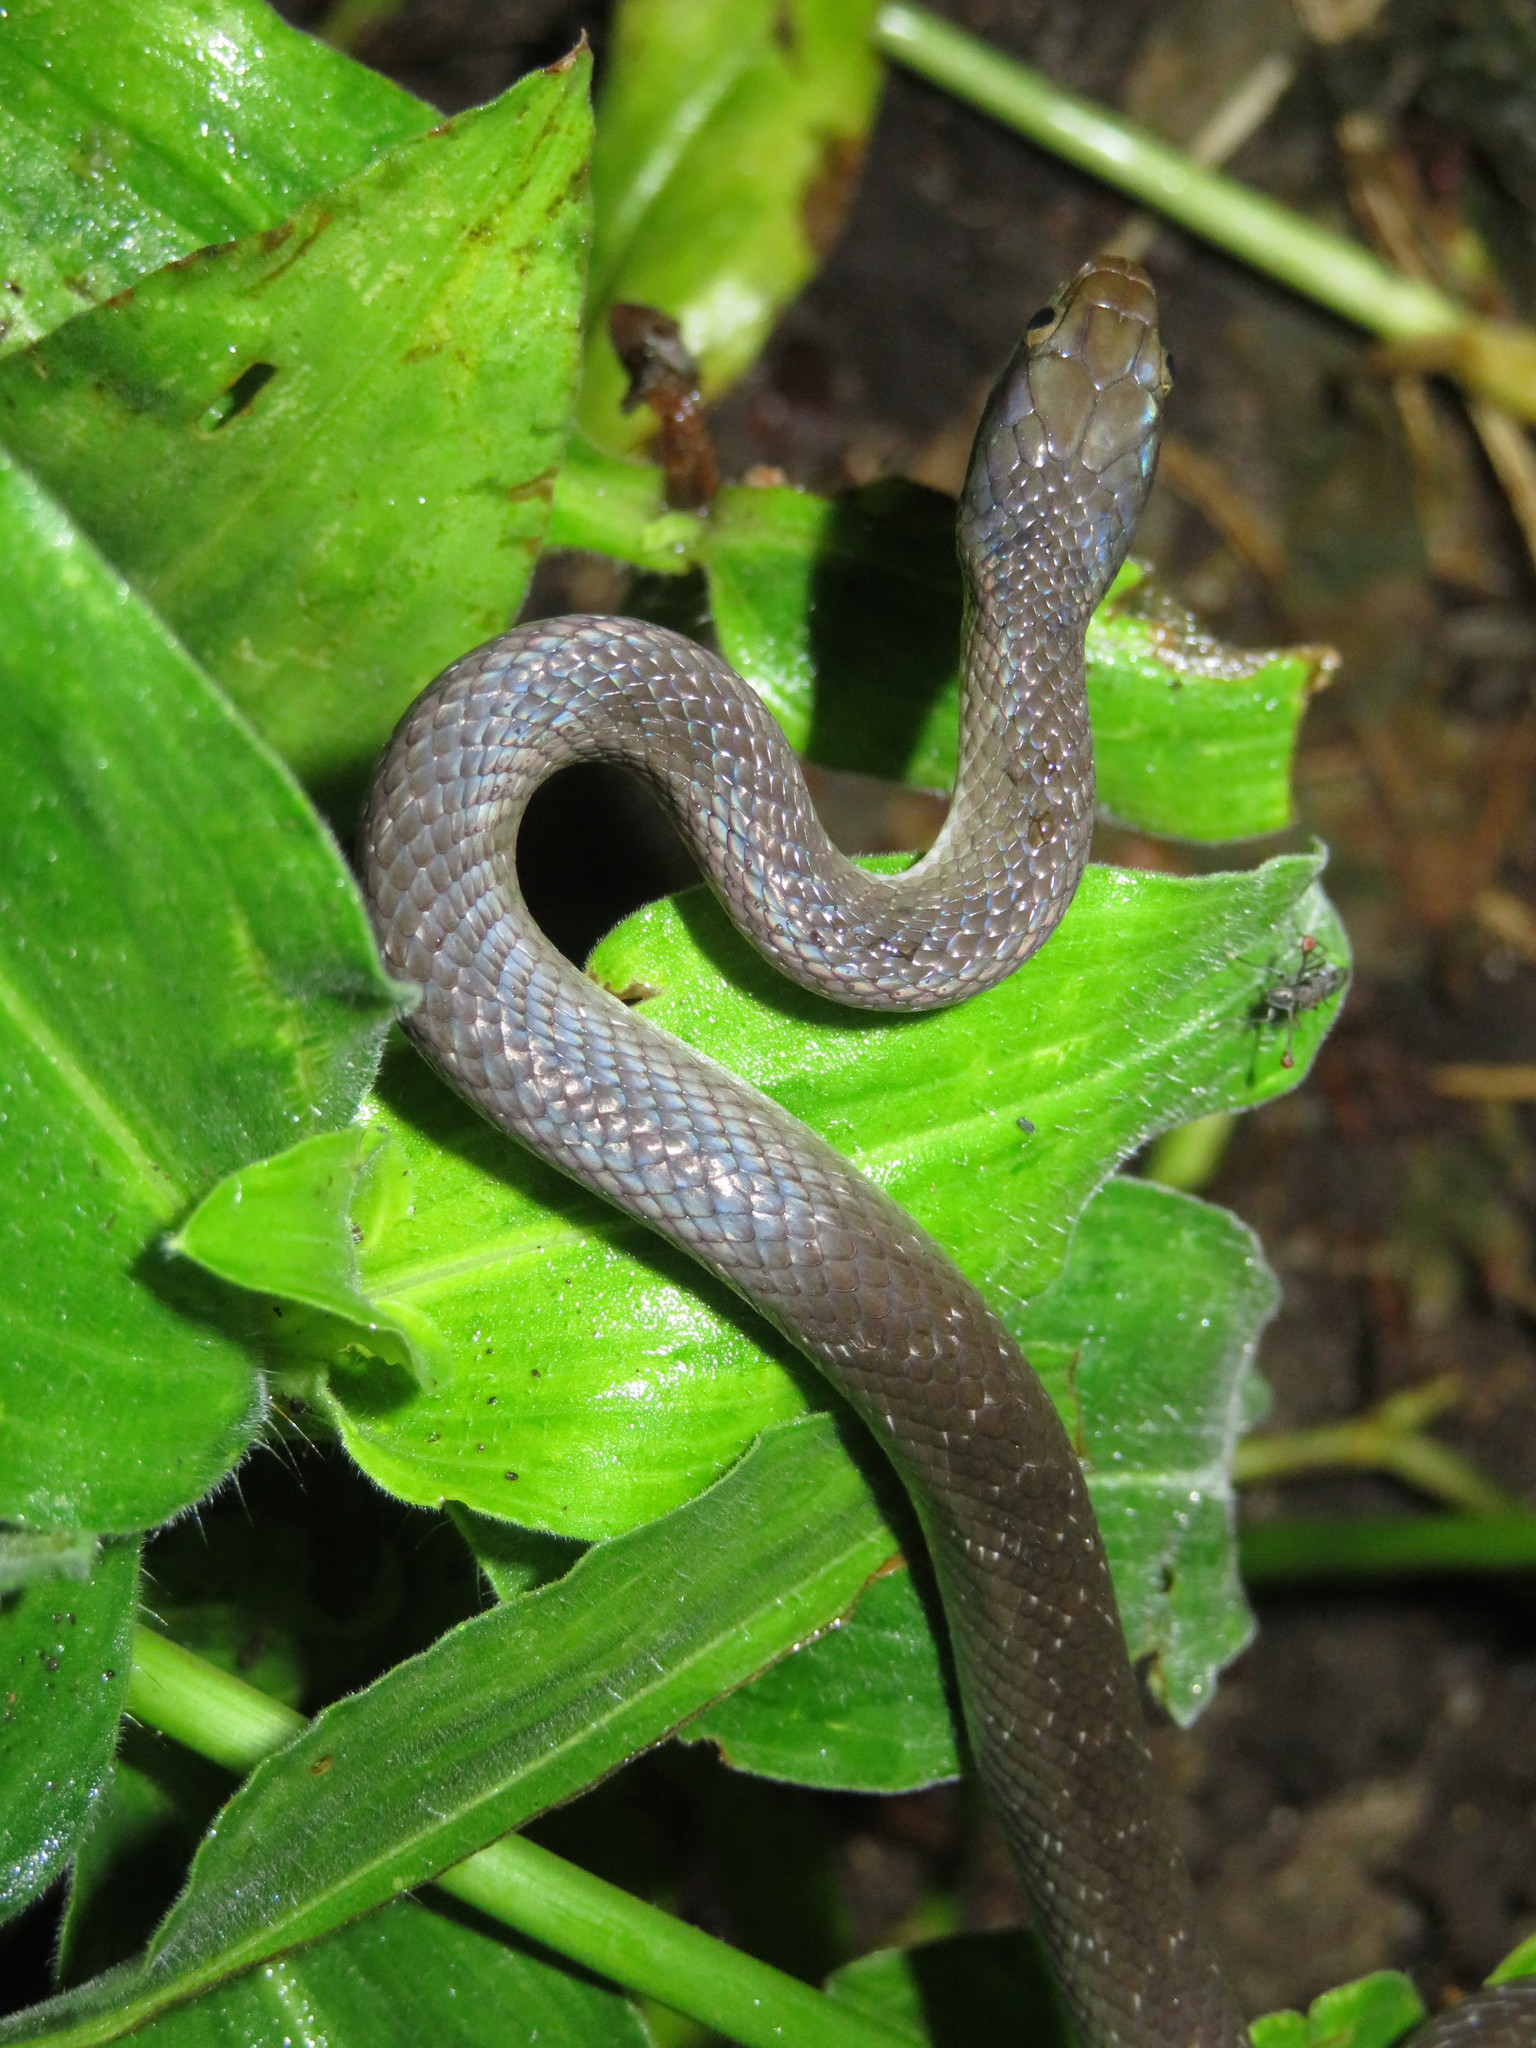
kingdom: Animalia
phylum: Chordata
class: Squamata
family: Colubridae
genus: Crotaphopeltis
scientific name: Crotaphopeltis hotamboeia
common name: Red-lipped snake
